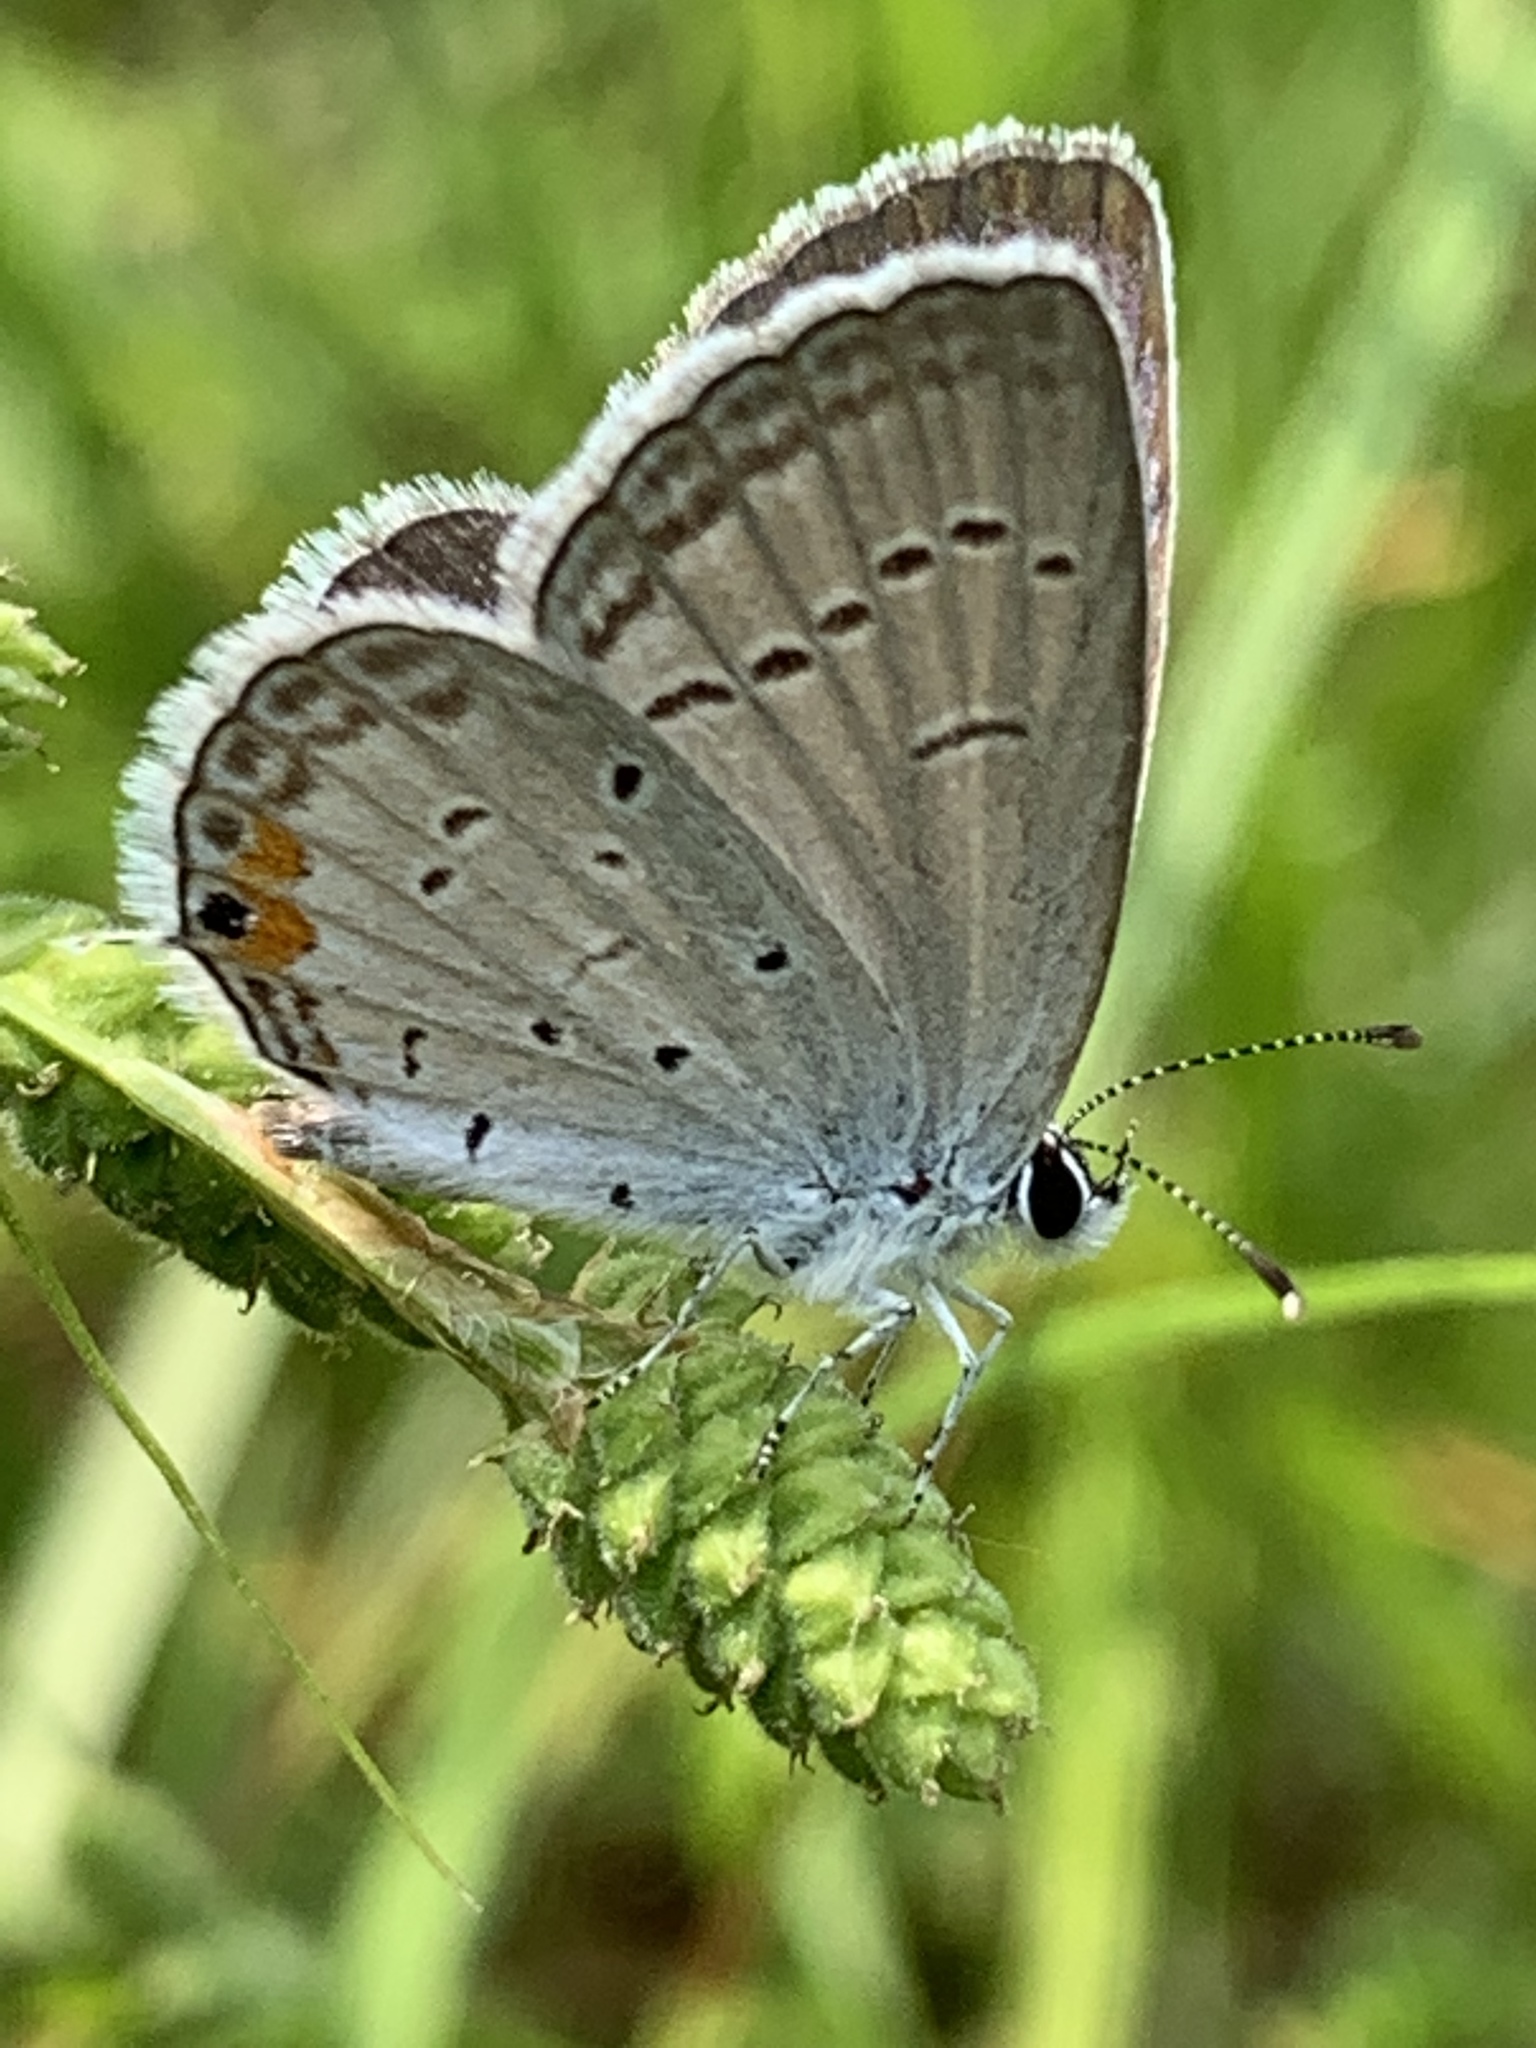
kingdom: Animalia
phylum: Arthropoda
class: Insecta
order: Lepidoptera
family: Lycaenidae
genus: Elkalyce
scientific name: Elkalyce comyntas
